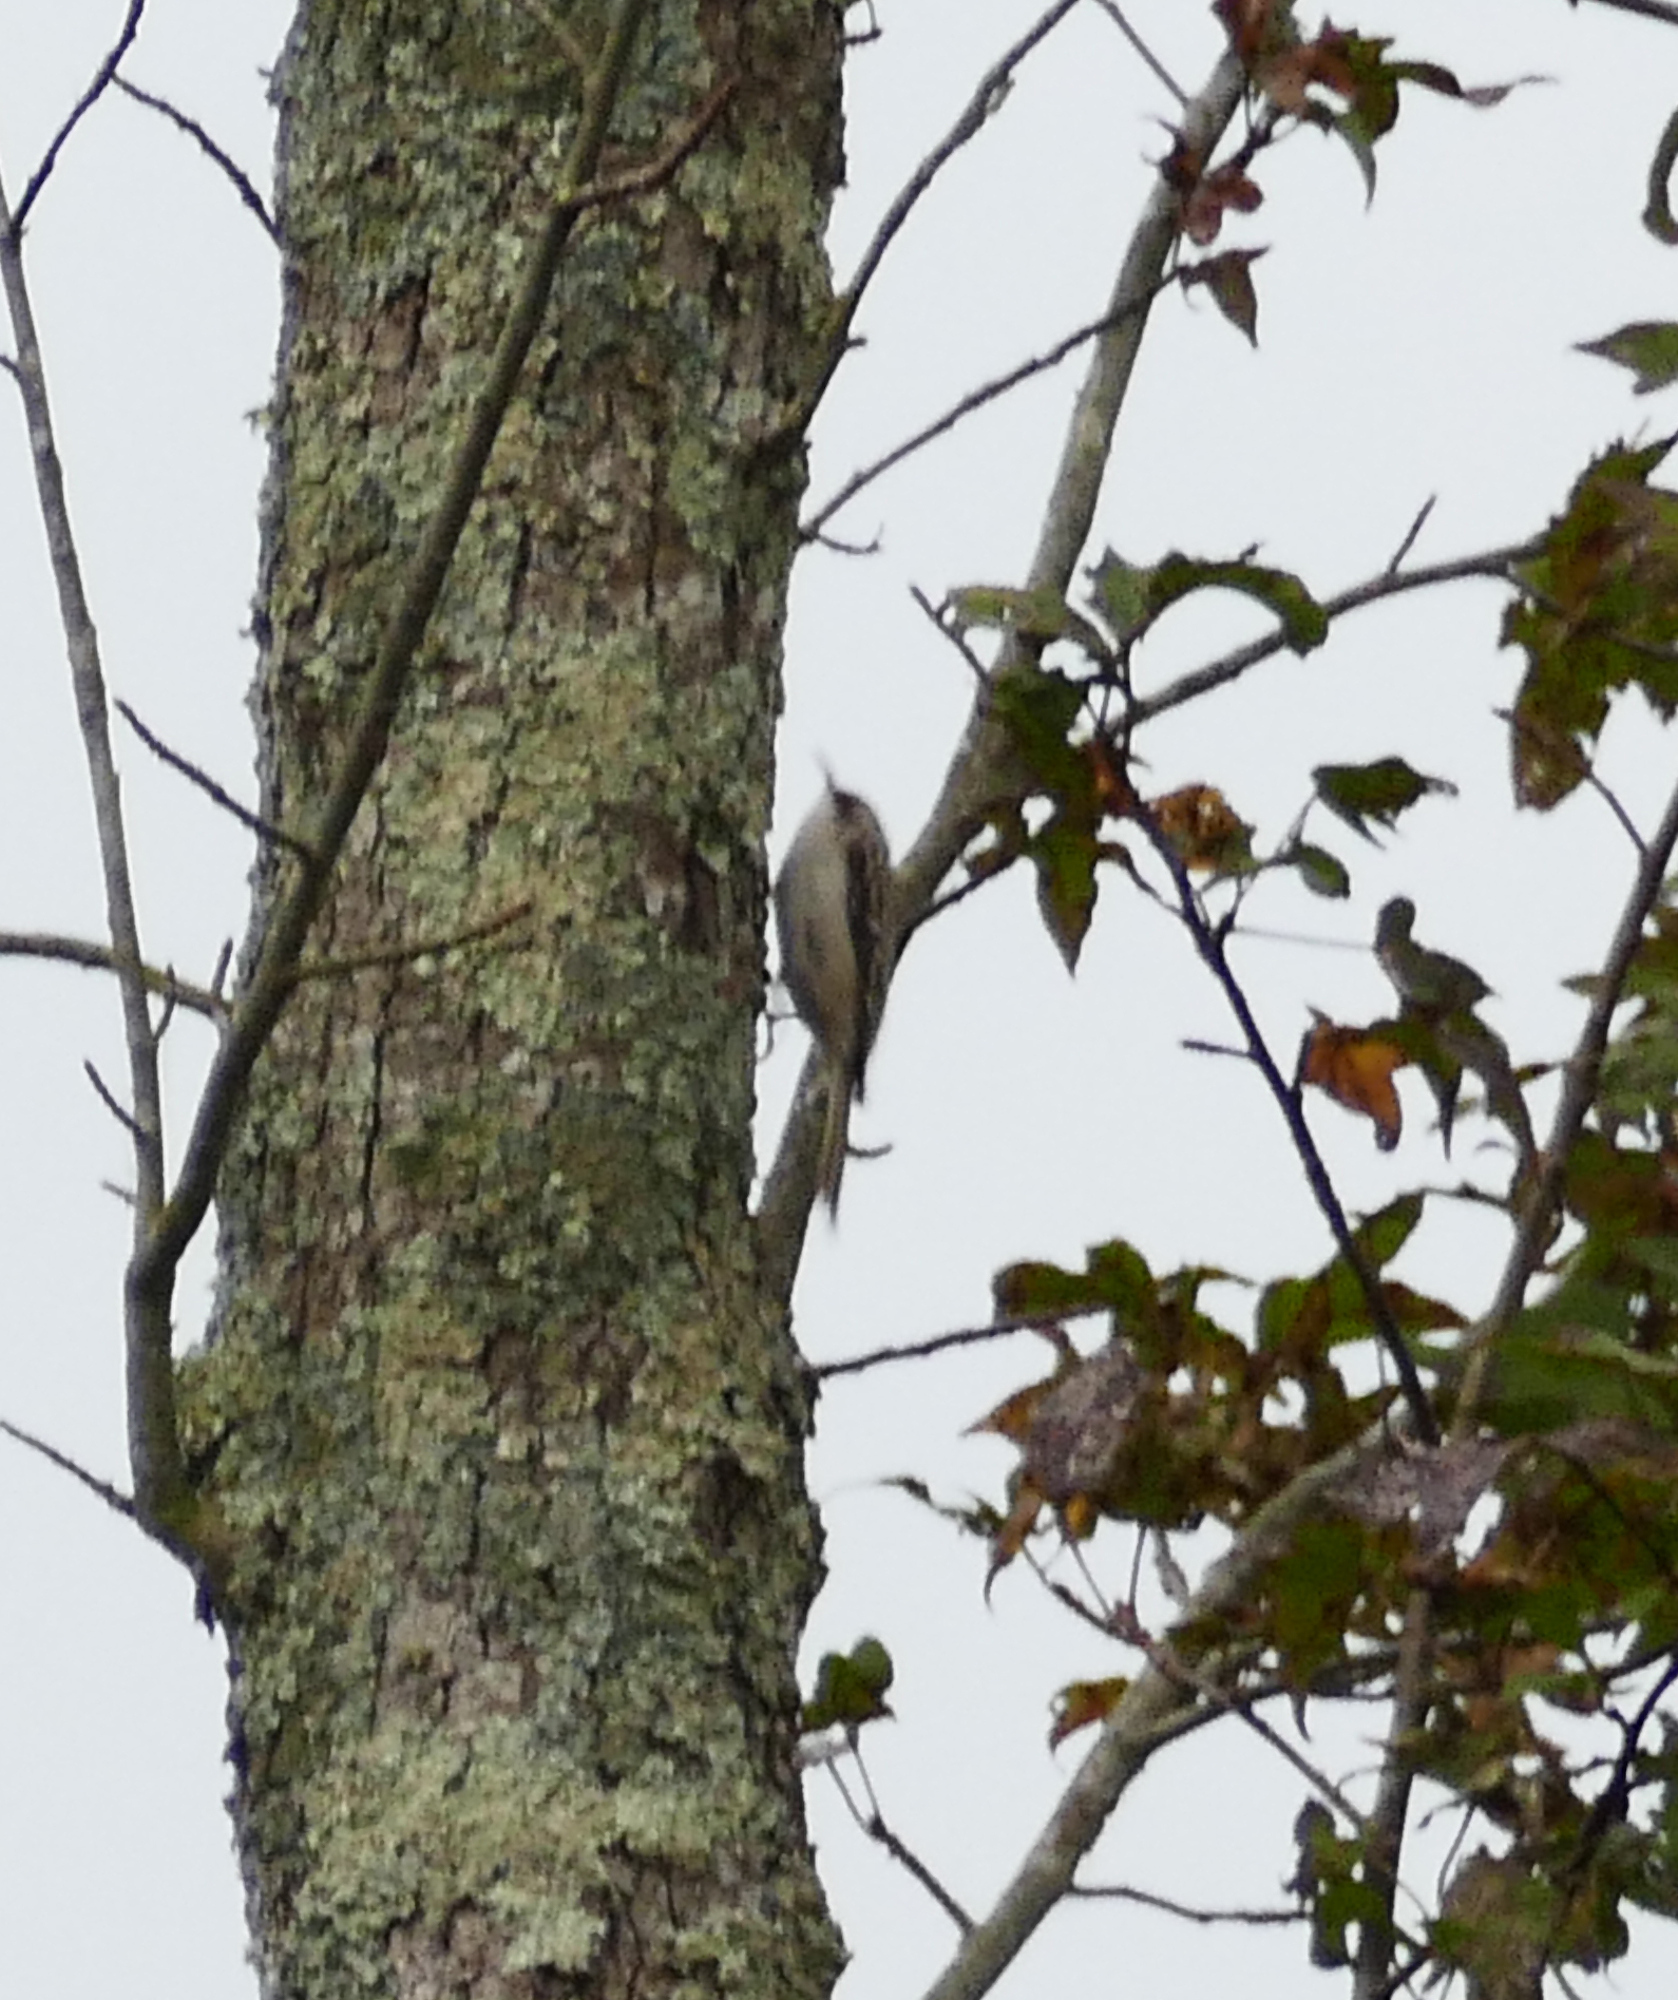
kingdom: Animalia
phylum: Chordata
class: Aves
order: Passeriformes
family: Certhiidae
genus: Certhia
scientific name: Certhia americana
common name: Brown creeper
